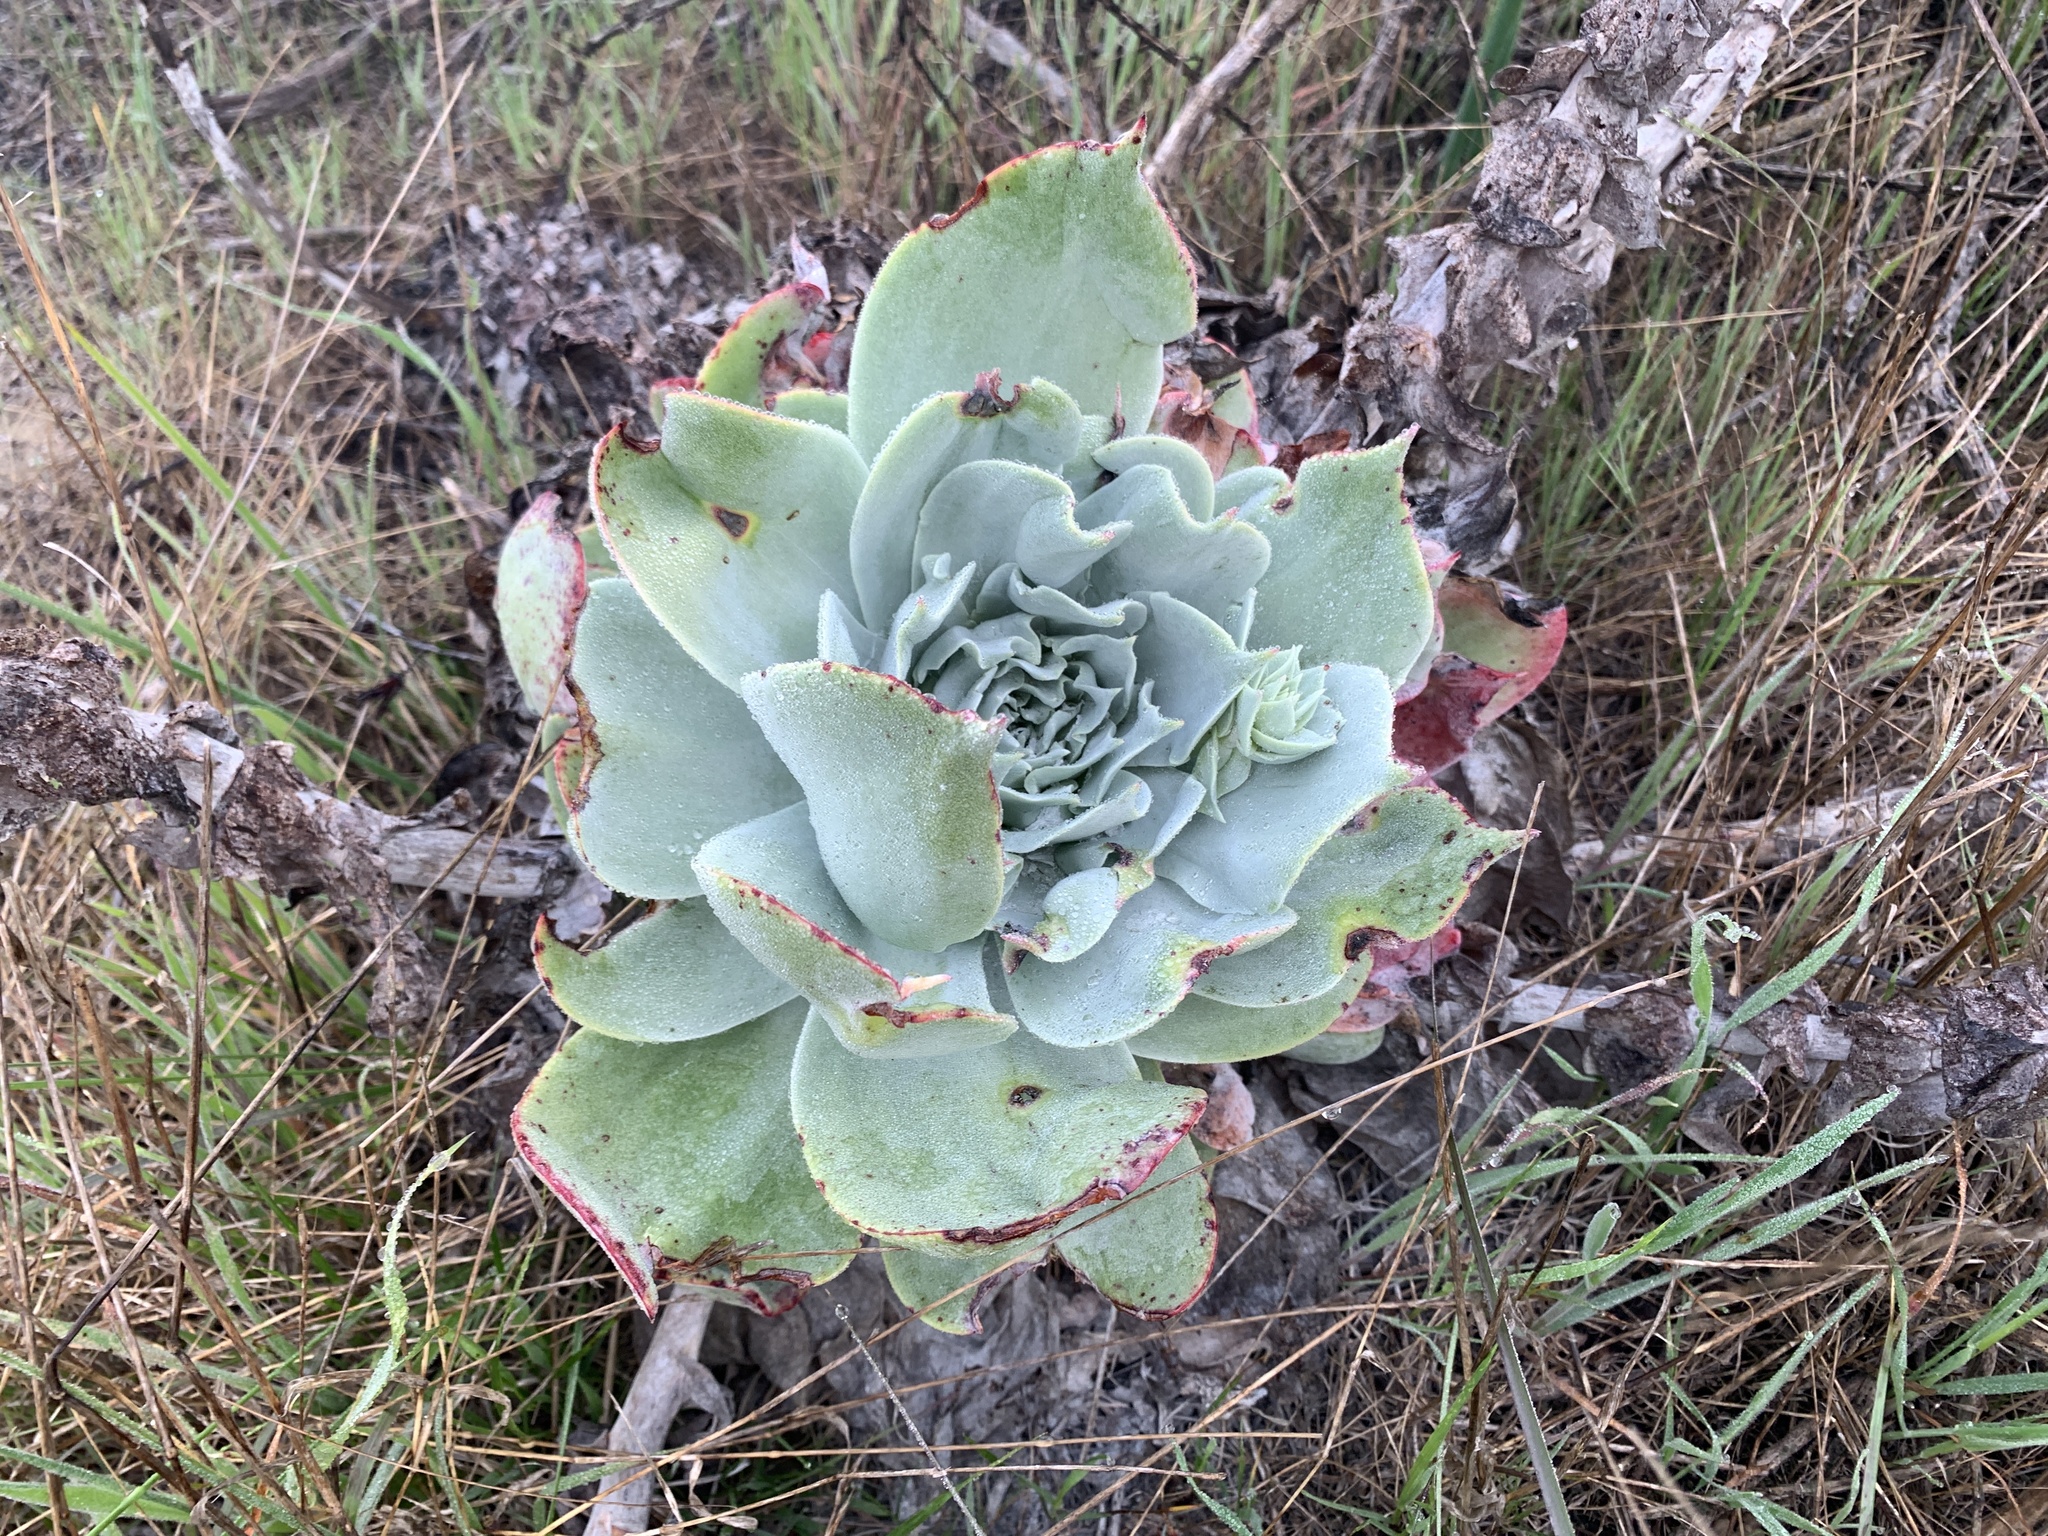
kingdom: Plantae
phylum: Tracheophyta
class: Magnoliopsida
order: Saxifragales
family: Crassulaceae
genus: Dudleya
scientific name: Dudleya pulverulenta
